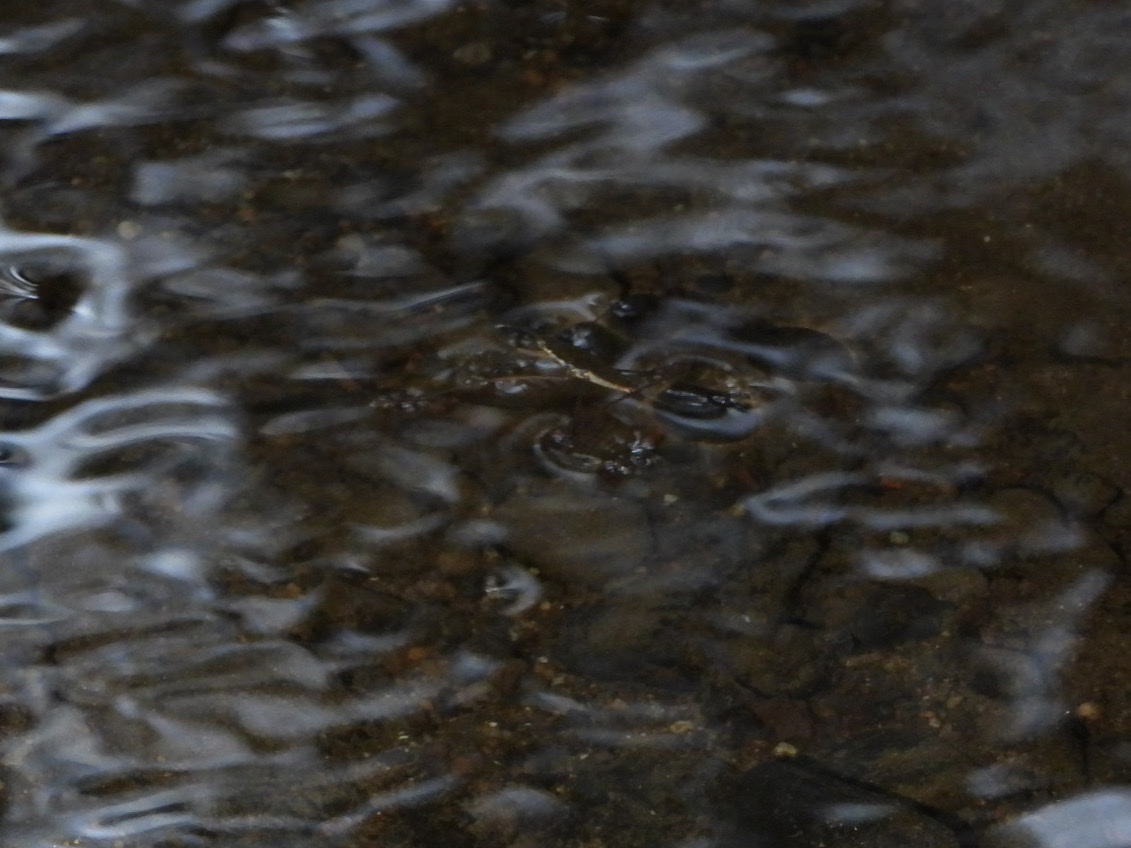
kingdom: Animalia
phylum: Arthropoda
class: Insecta
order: Hemiptera
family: Gerridae
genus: Aquarius
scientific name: Aquarius remigis
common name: Common water strider
